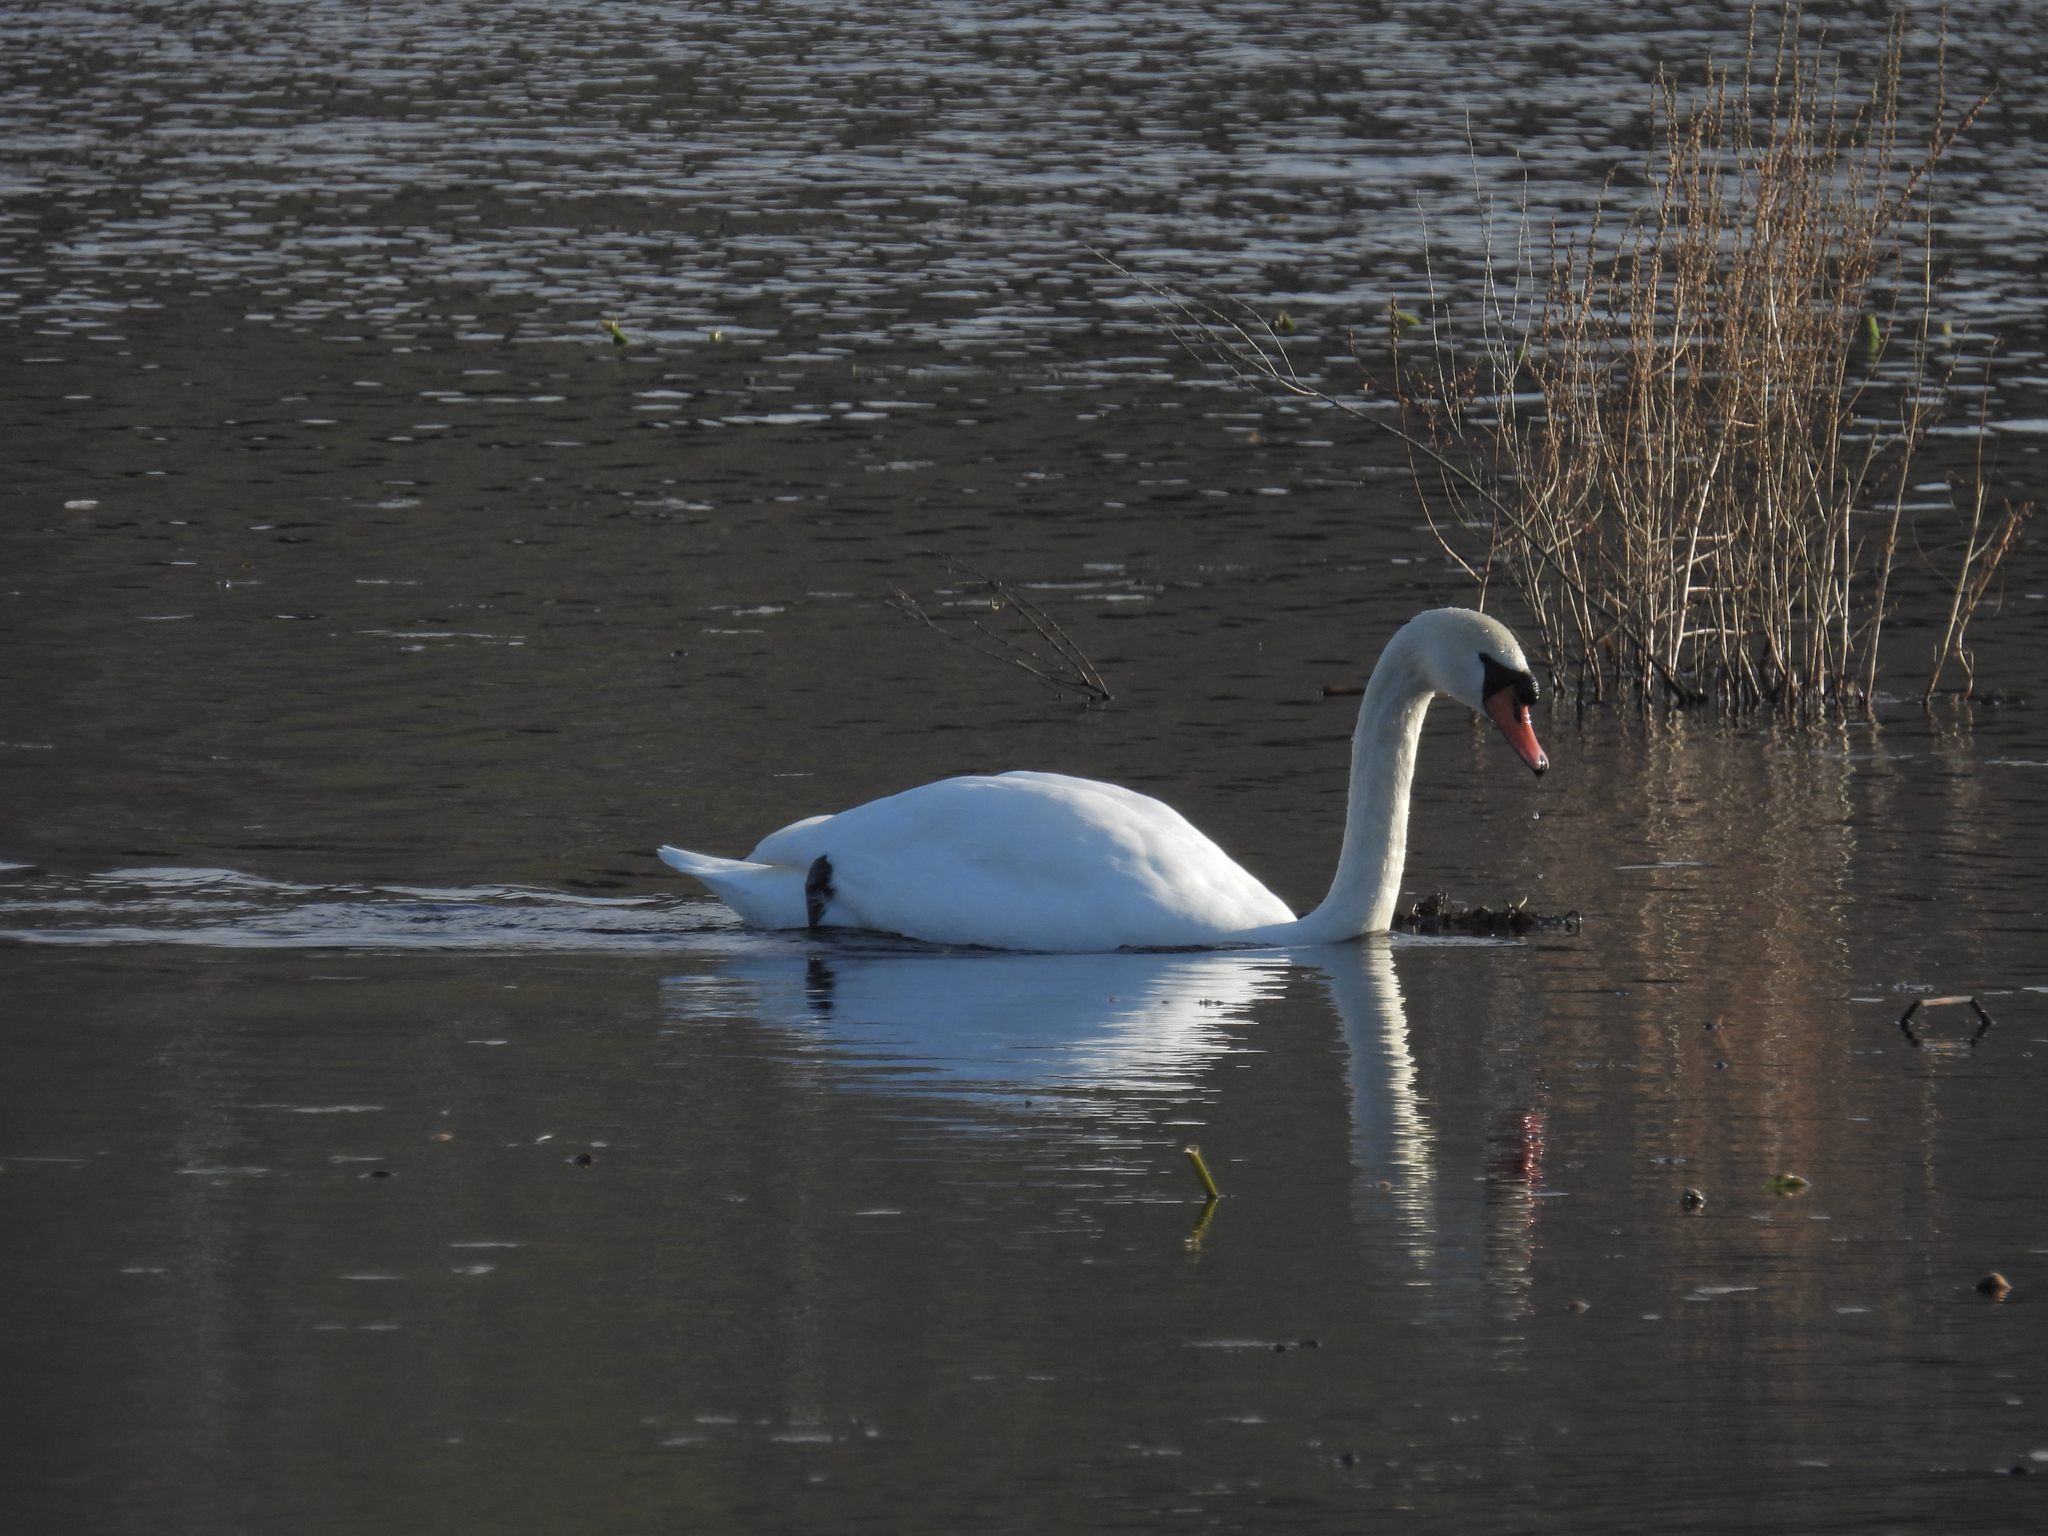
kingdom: Animalia
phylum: Chordata
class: Aves
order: Anseriformes
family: Anatidae
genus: Cygnus
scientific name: Cygnus olor
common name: Mute swan
